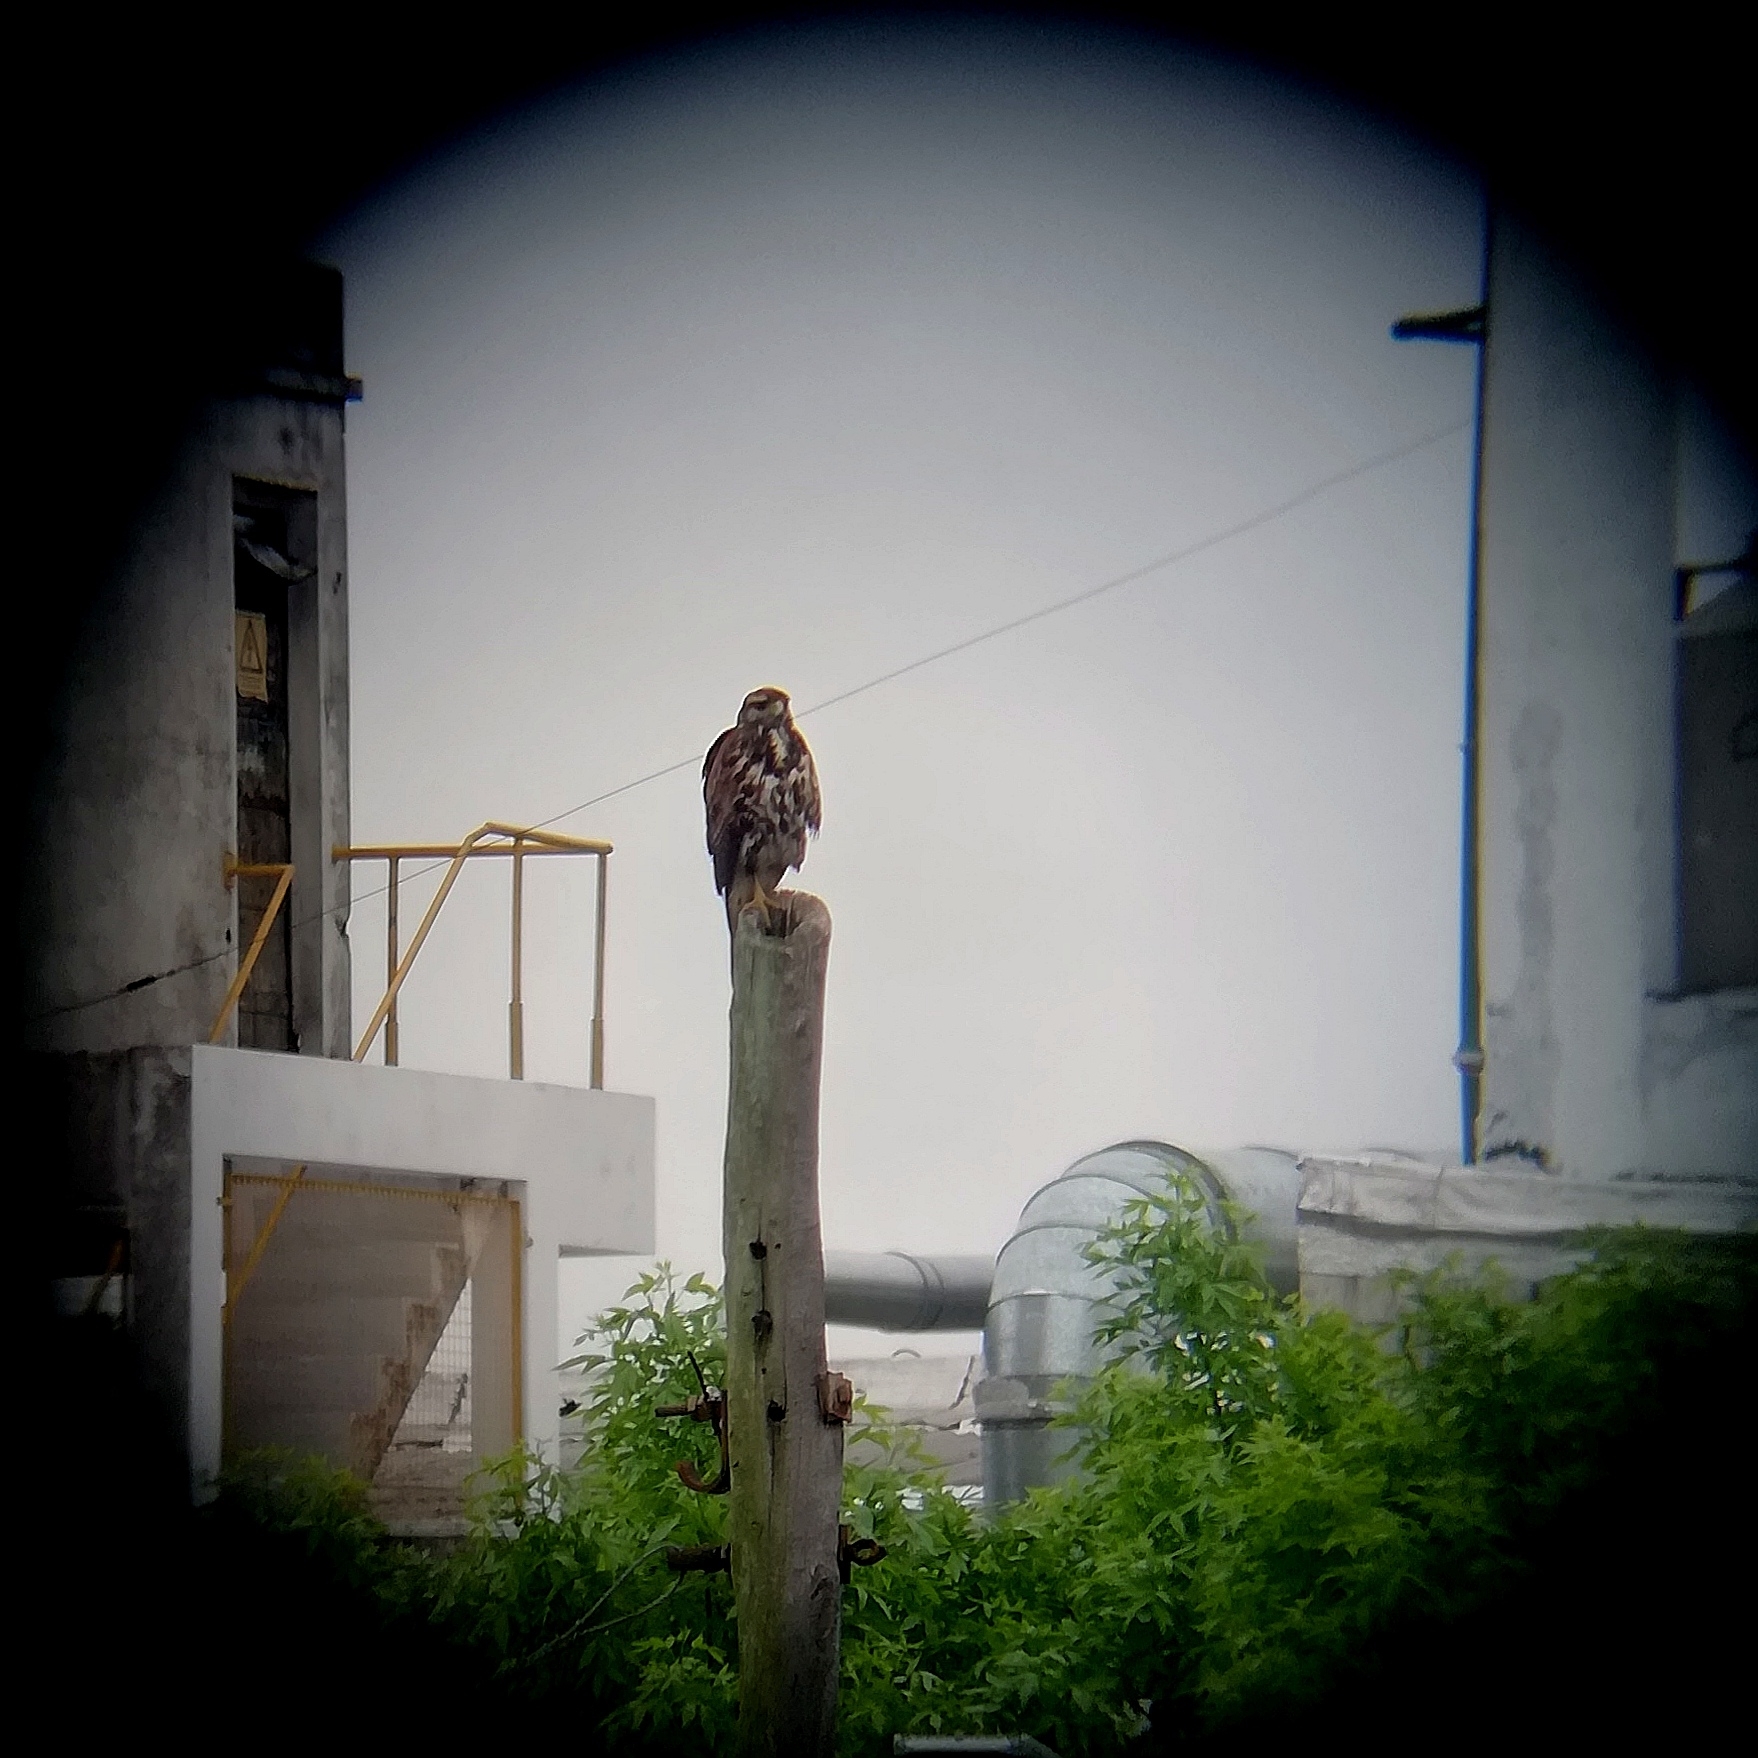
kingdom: Animalia
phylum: Chordata
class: Aves
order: Accipitriformes
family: Accipitridae
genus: Parabuteo
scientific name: Parabuteo unicinctus
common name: Harris's hawk
